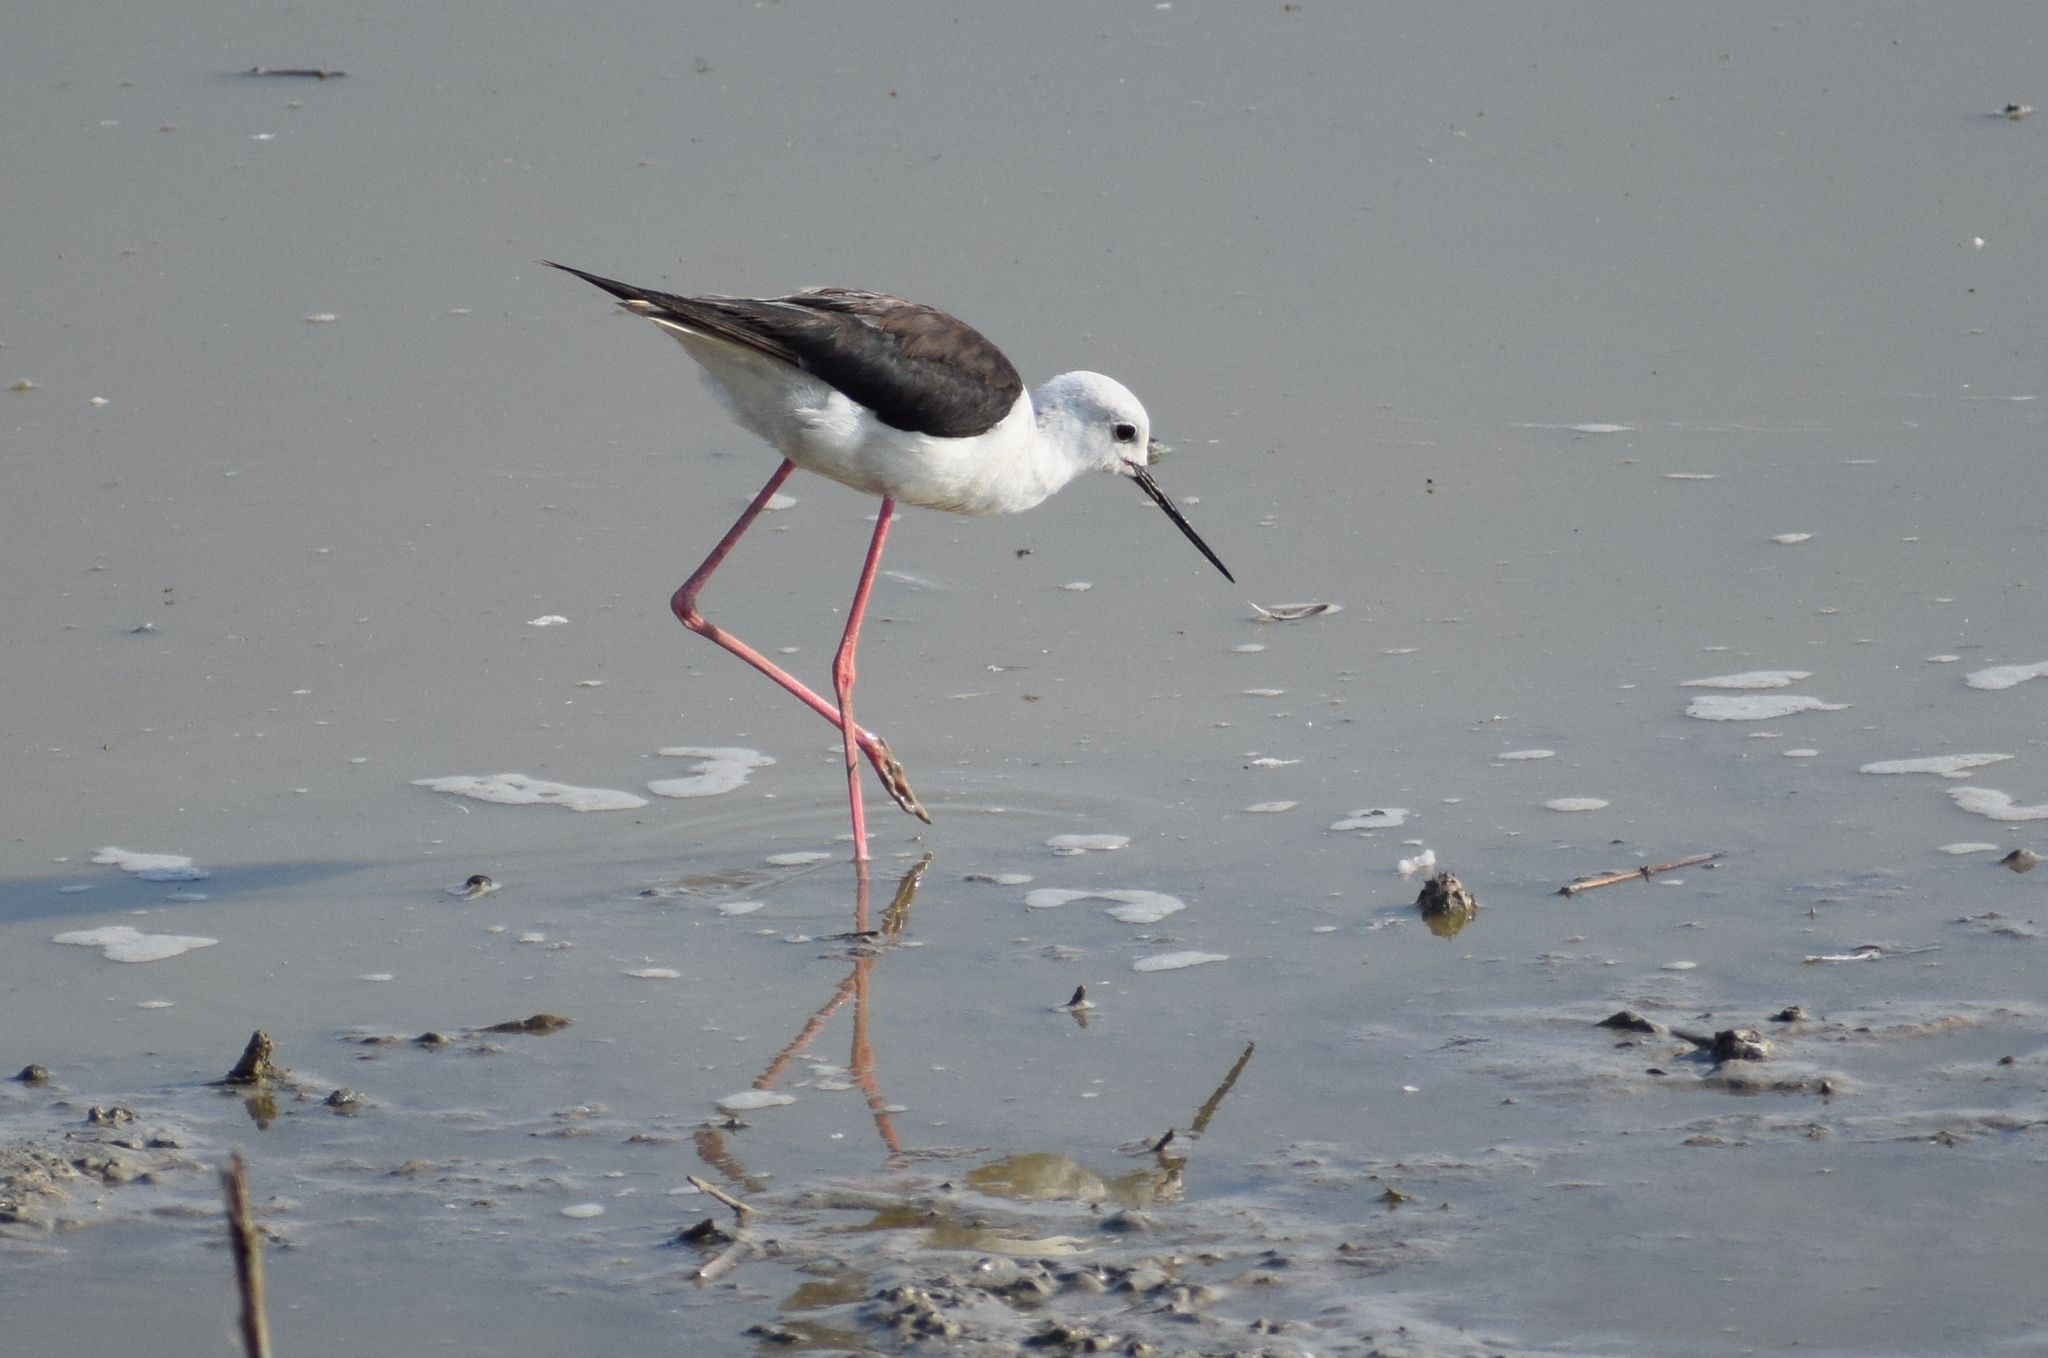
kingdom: Animalia
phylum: Chordata
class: Aves
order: Charadriiformes
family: Recurvirostridae
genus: Himantopus
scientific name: Himantopus himantopus
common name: Black-winged stilt
